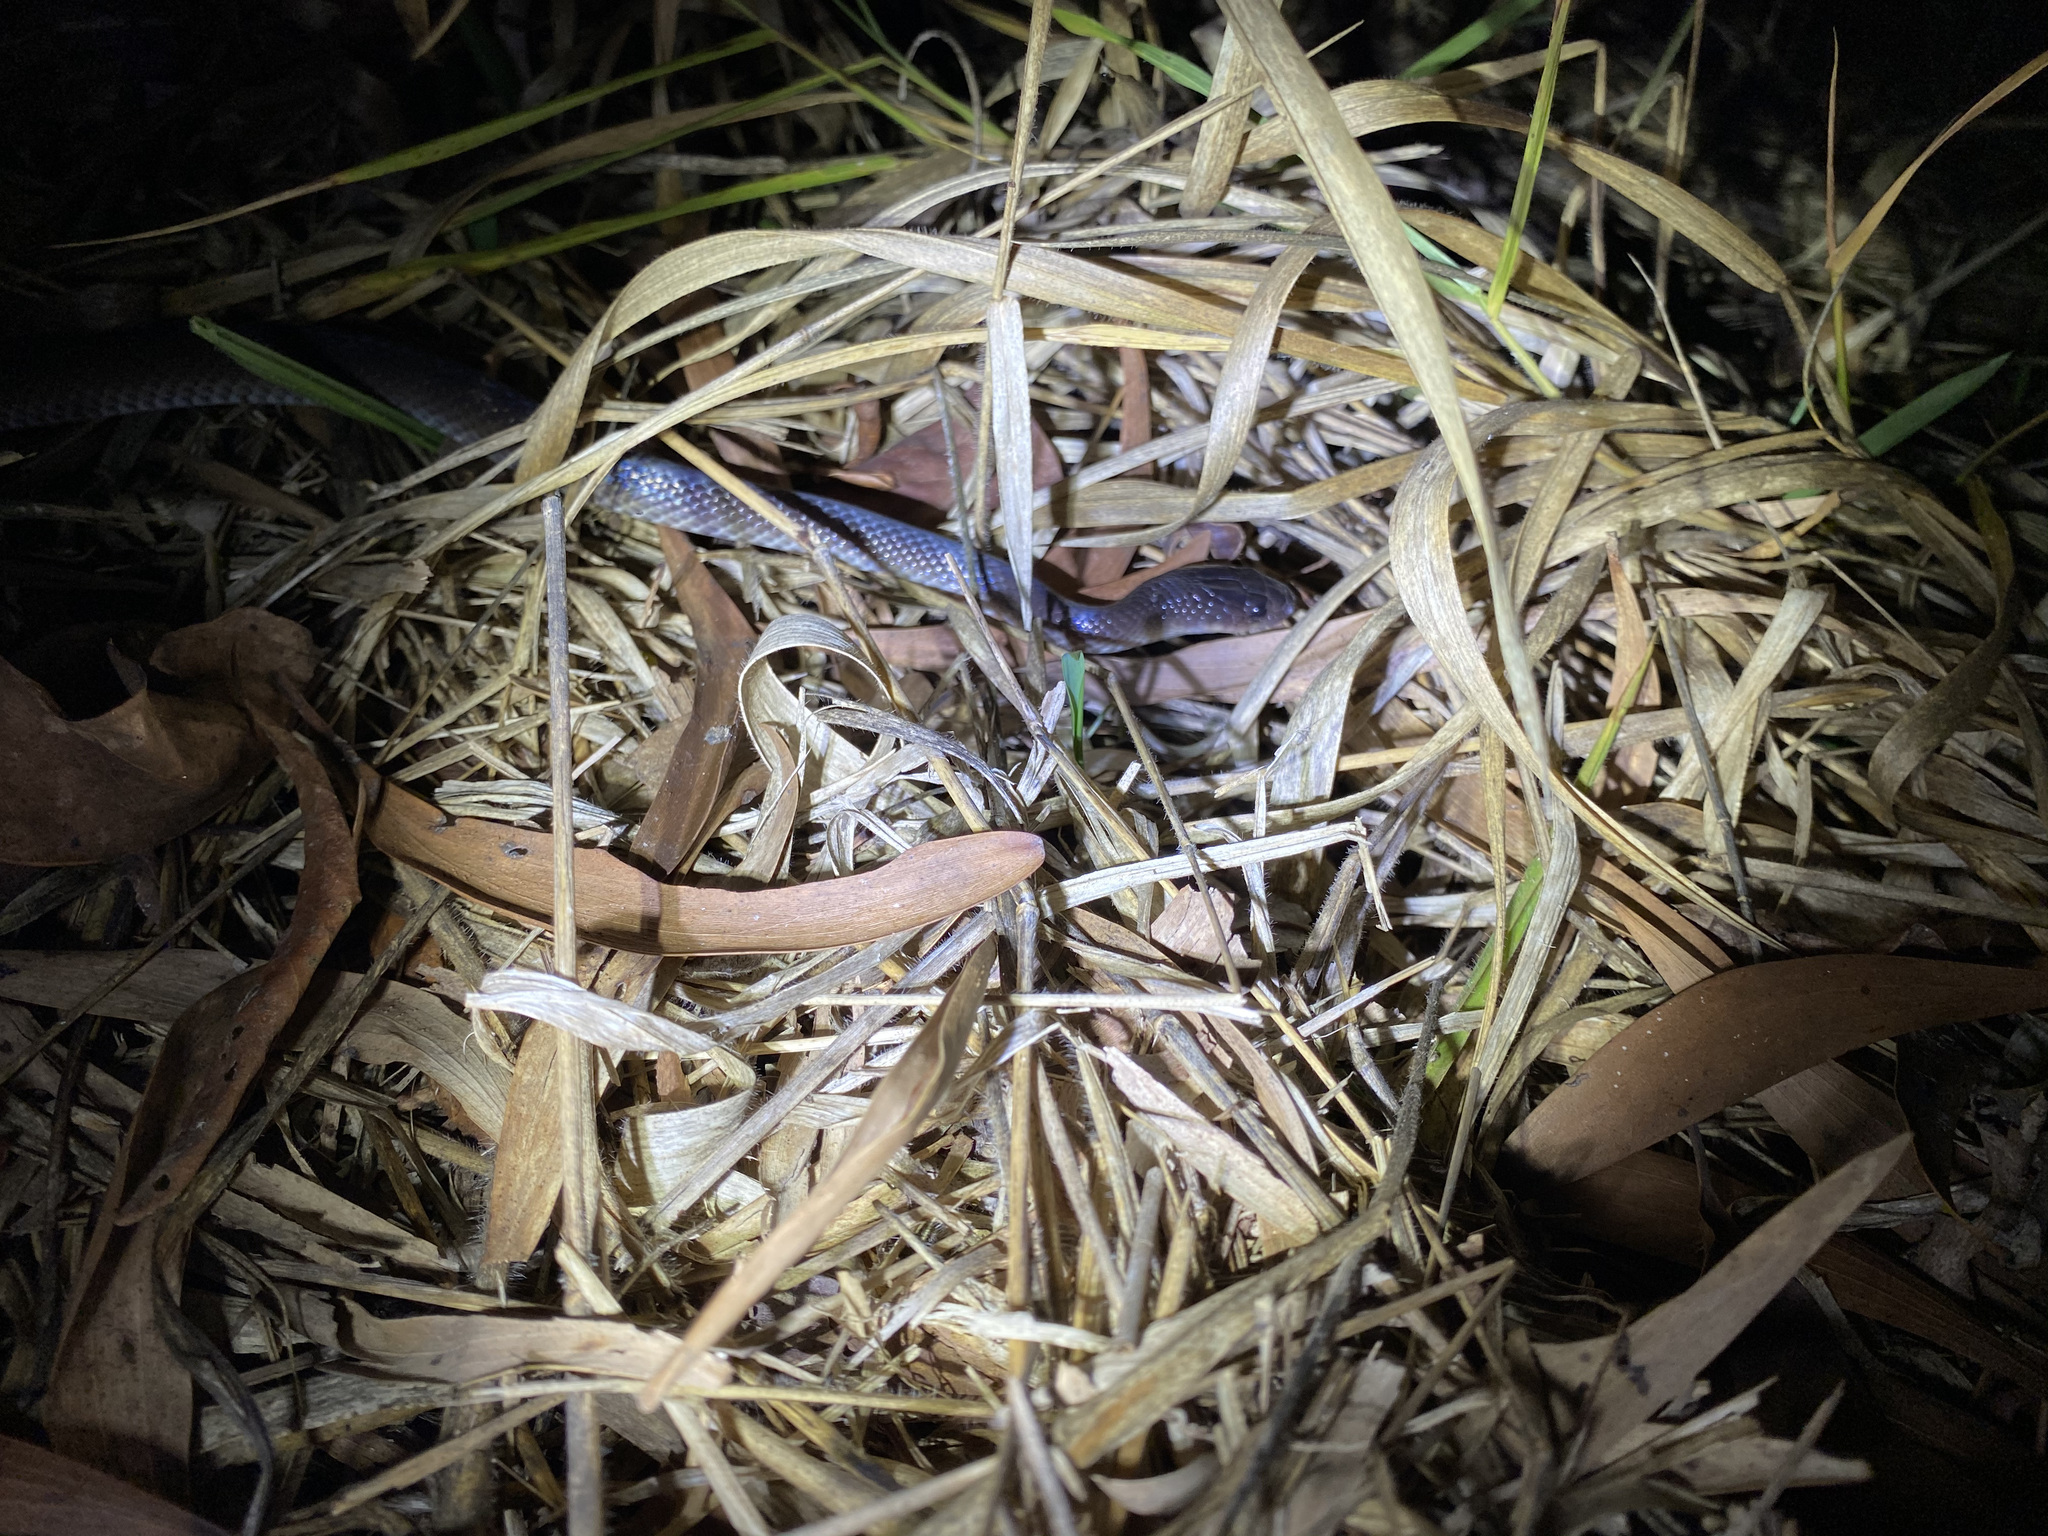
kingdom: Animalia
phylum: Chordata
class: Squamata
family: Colubridae
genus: Stegonotus
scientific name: Stegonotus australis
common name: Australian groundsnake
